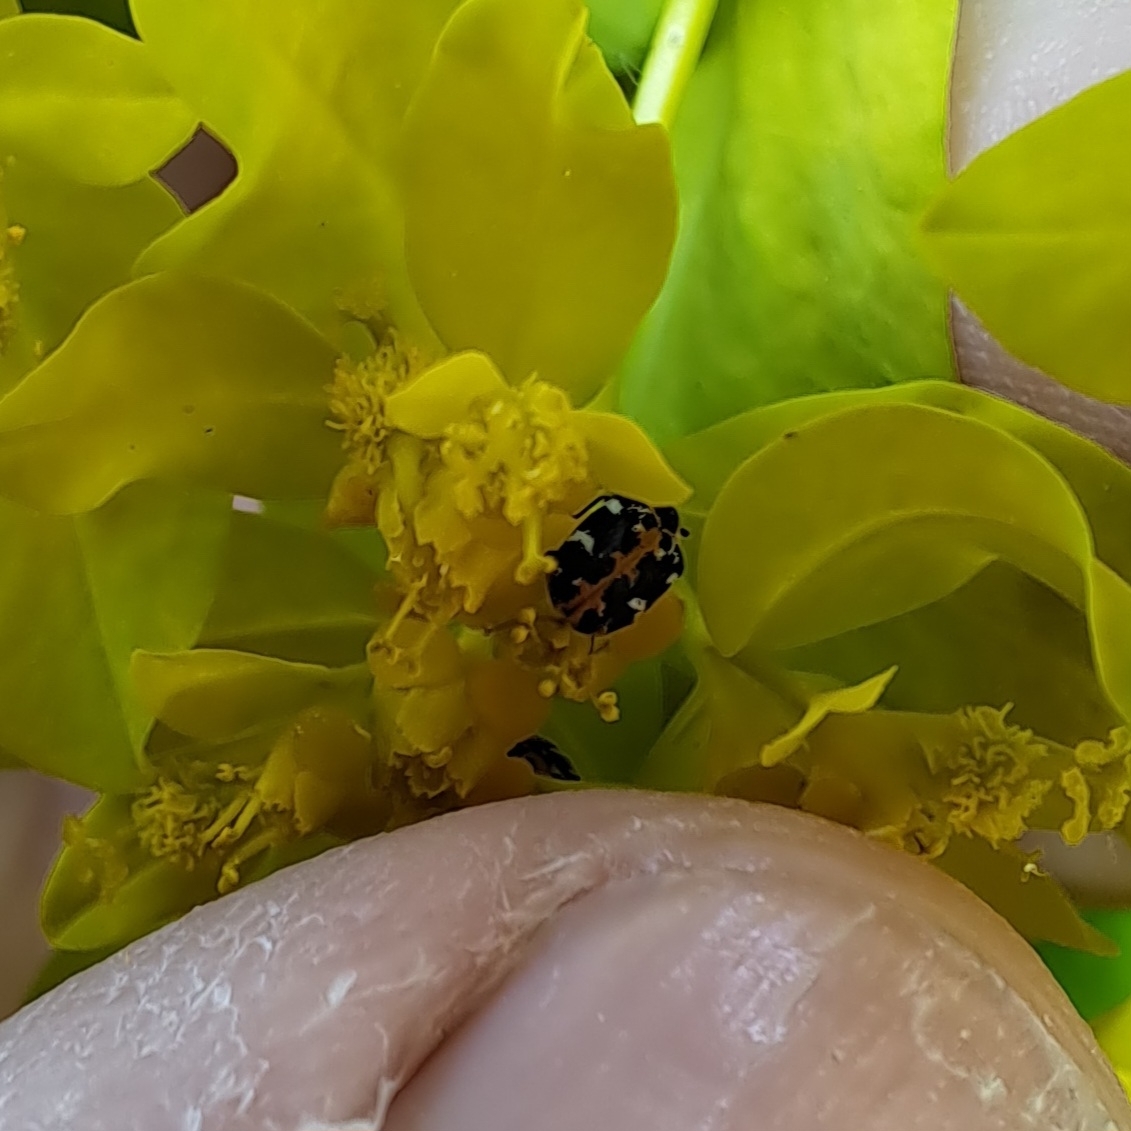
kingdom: Animalia
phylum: Arthropoda
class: Insecta
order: Coleoptera
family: Dermestidae
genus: Anthrenus
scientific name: Anthrenus scrophulariae
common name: Buffalo carpet beetle
